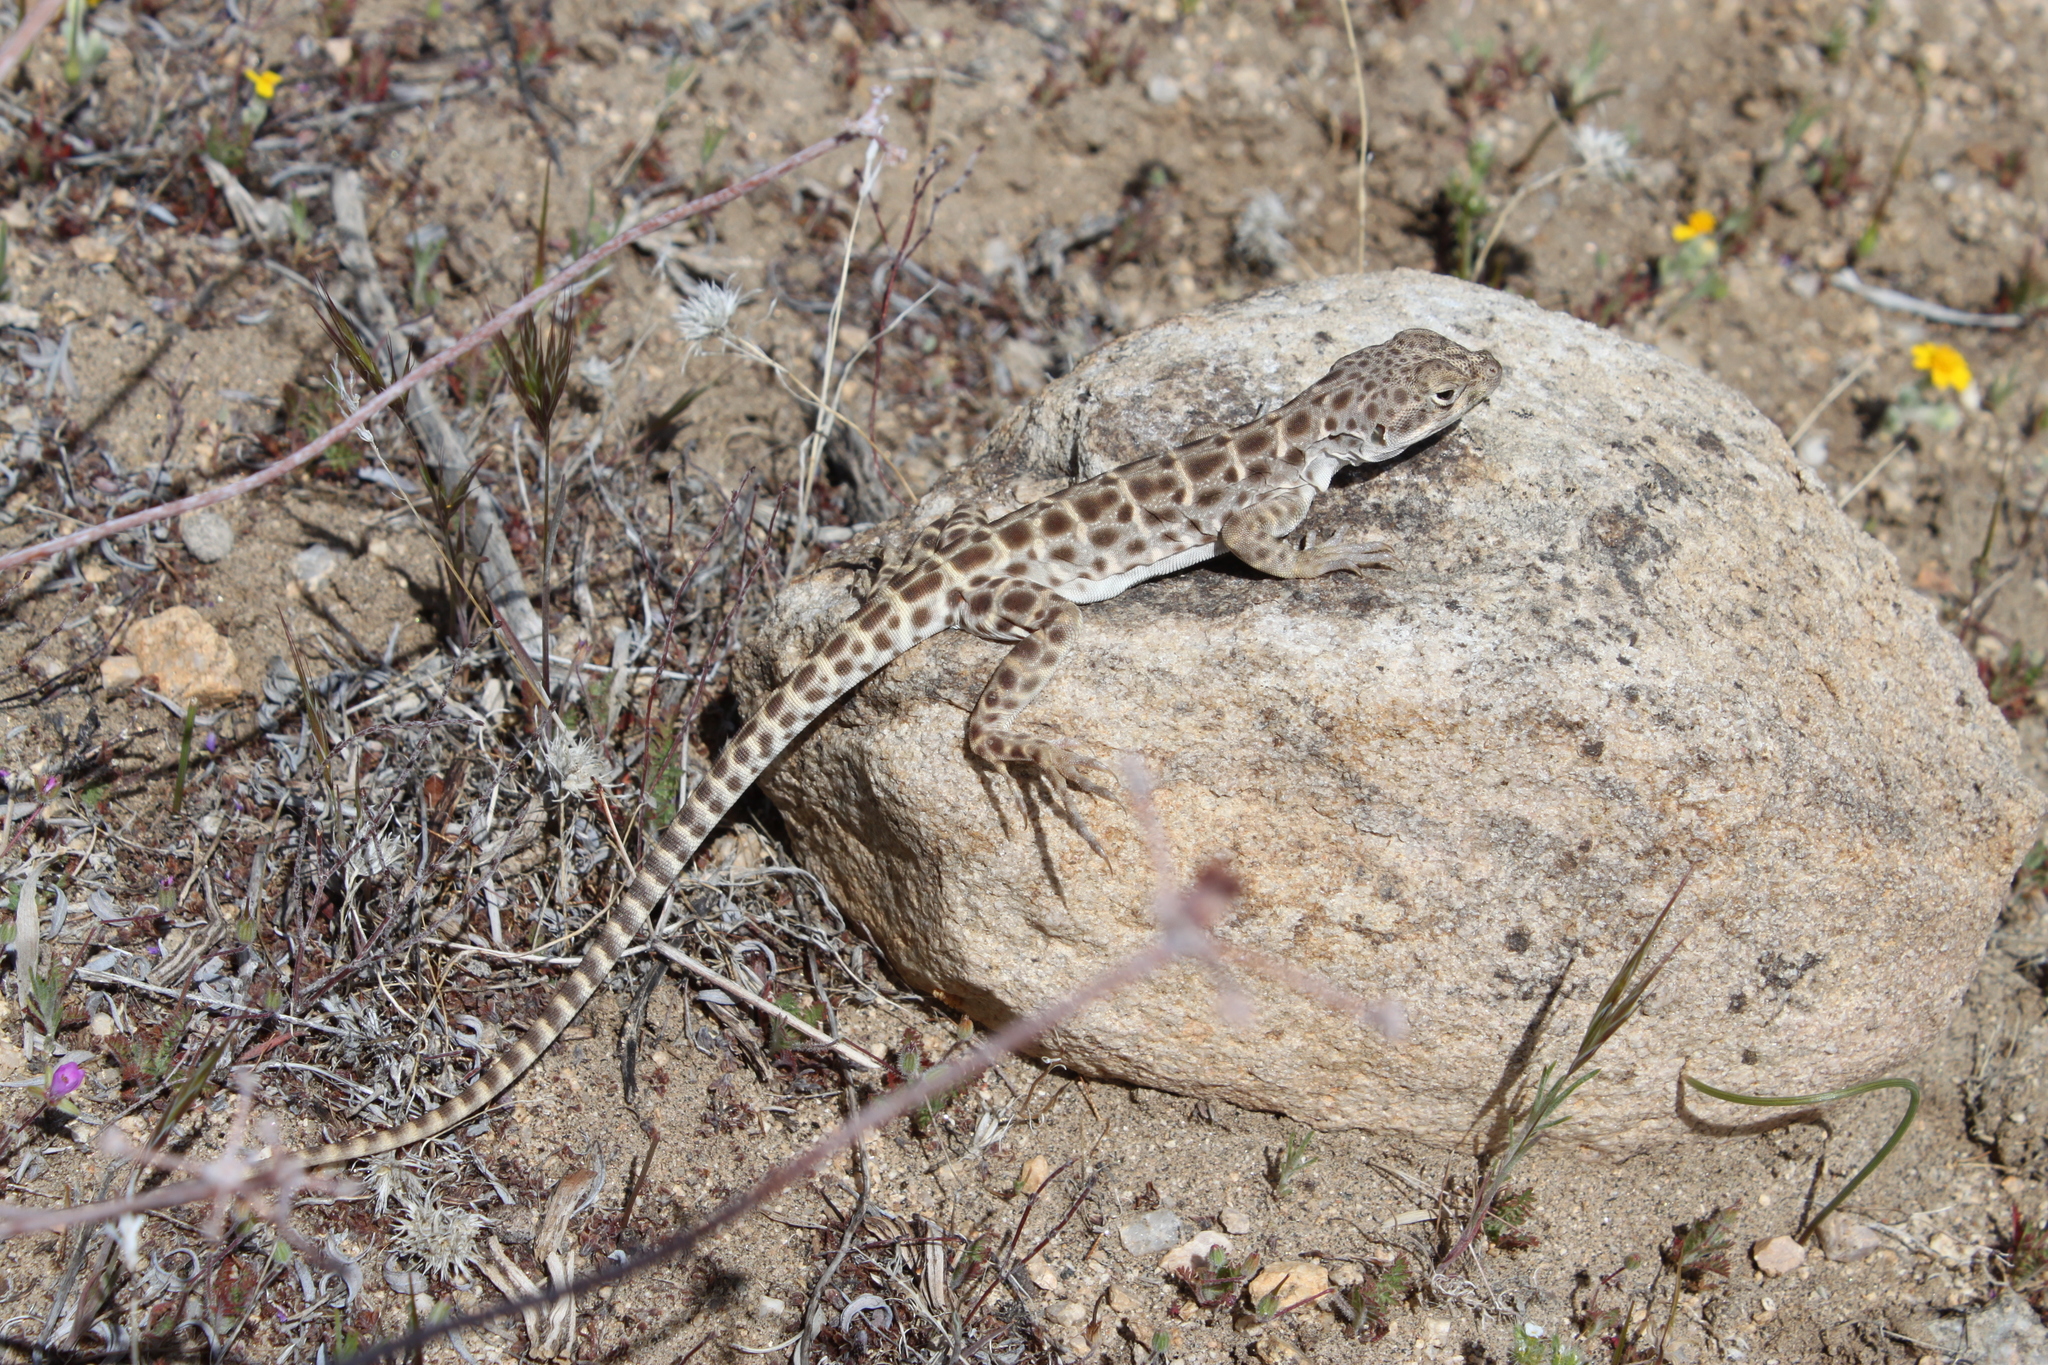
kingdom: Animalia
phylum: Chordata
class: Squamata
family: Crotaphytidae
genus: Gambelia
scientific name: Gambelia wislizenii
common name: Longnose leopard lizard
